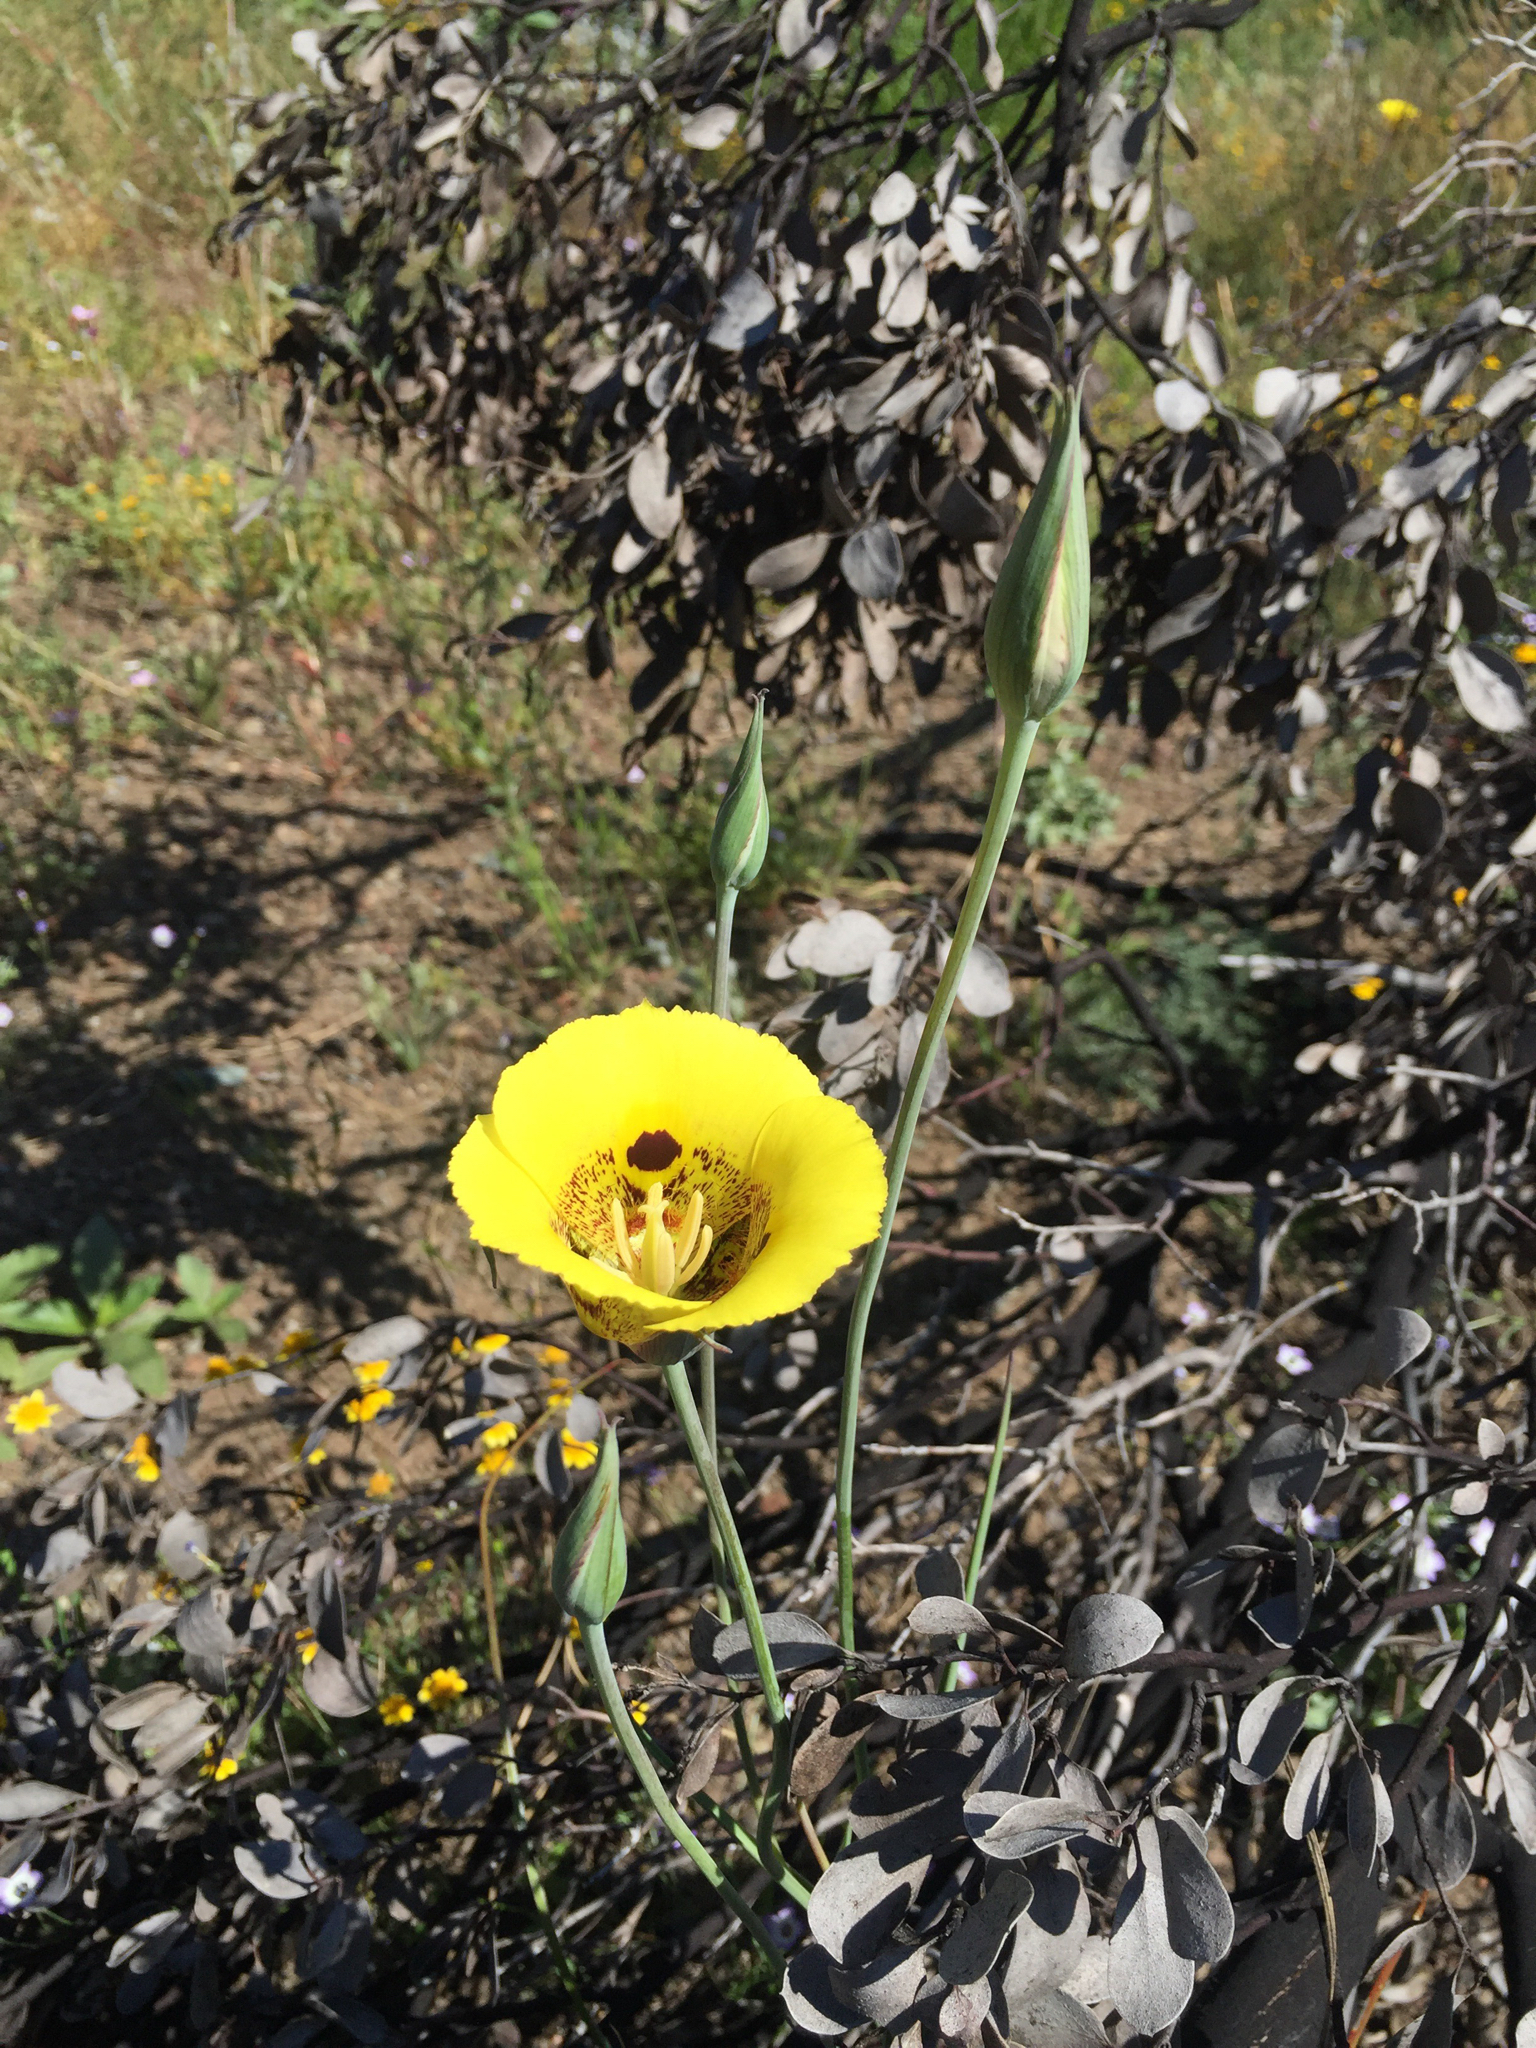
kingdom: Plantae
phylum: Tracheophyta
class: Liliopsida
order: Liliales
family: Liliaceae
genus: Calochortus
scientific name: Calochortus superbus
